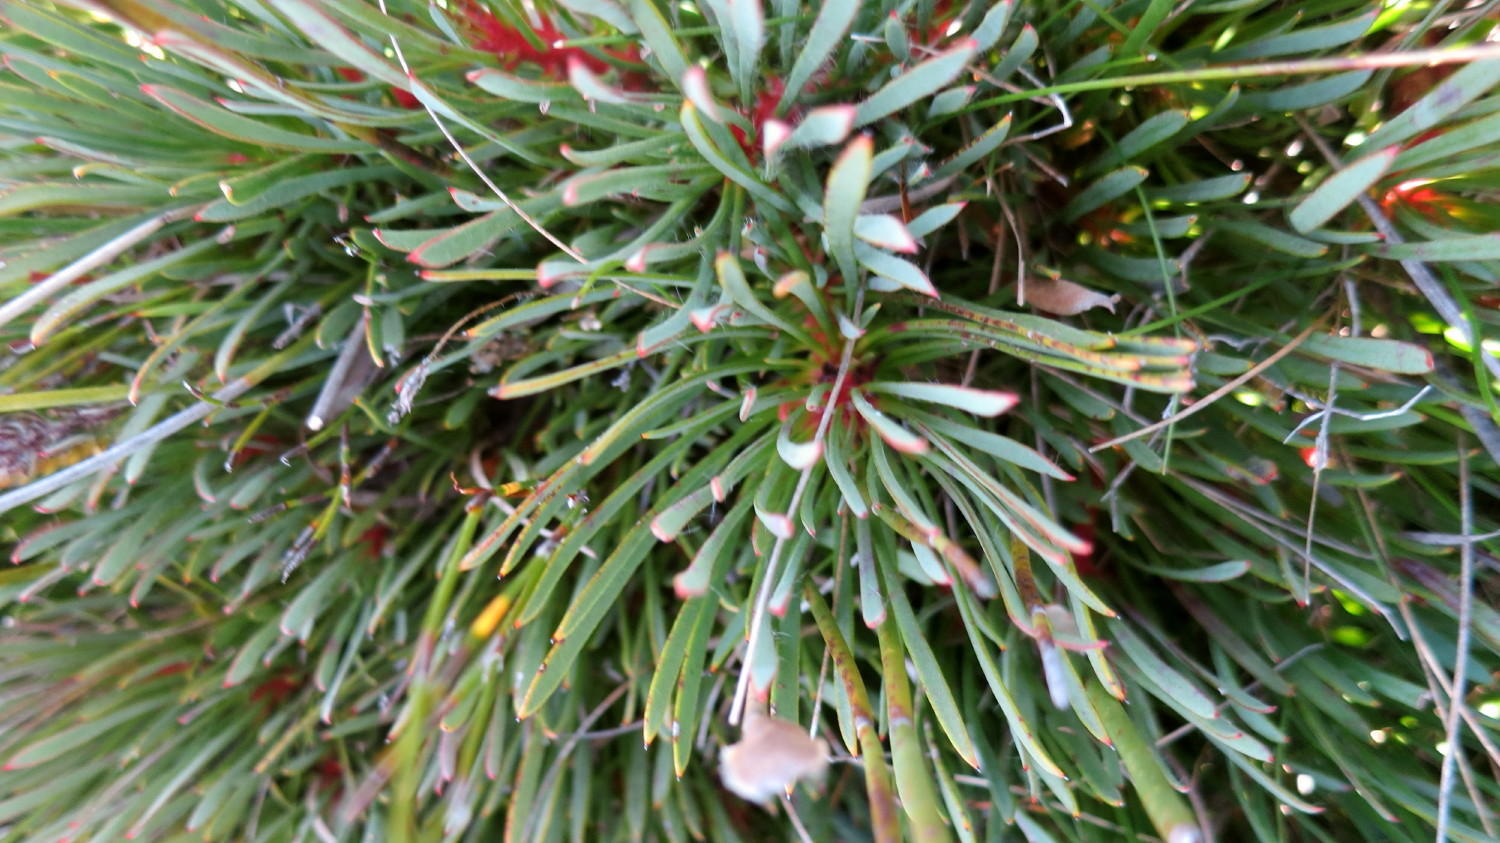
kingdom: Plantae
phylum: Tracheophyta
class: Magnoliopsida
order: Proteales
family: Proteaceae
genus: Protea
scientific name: Protea montana
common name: Swartberg sugarbush
